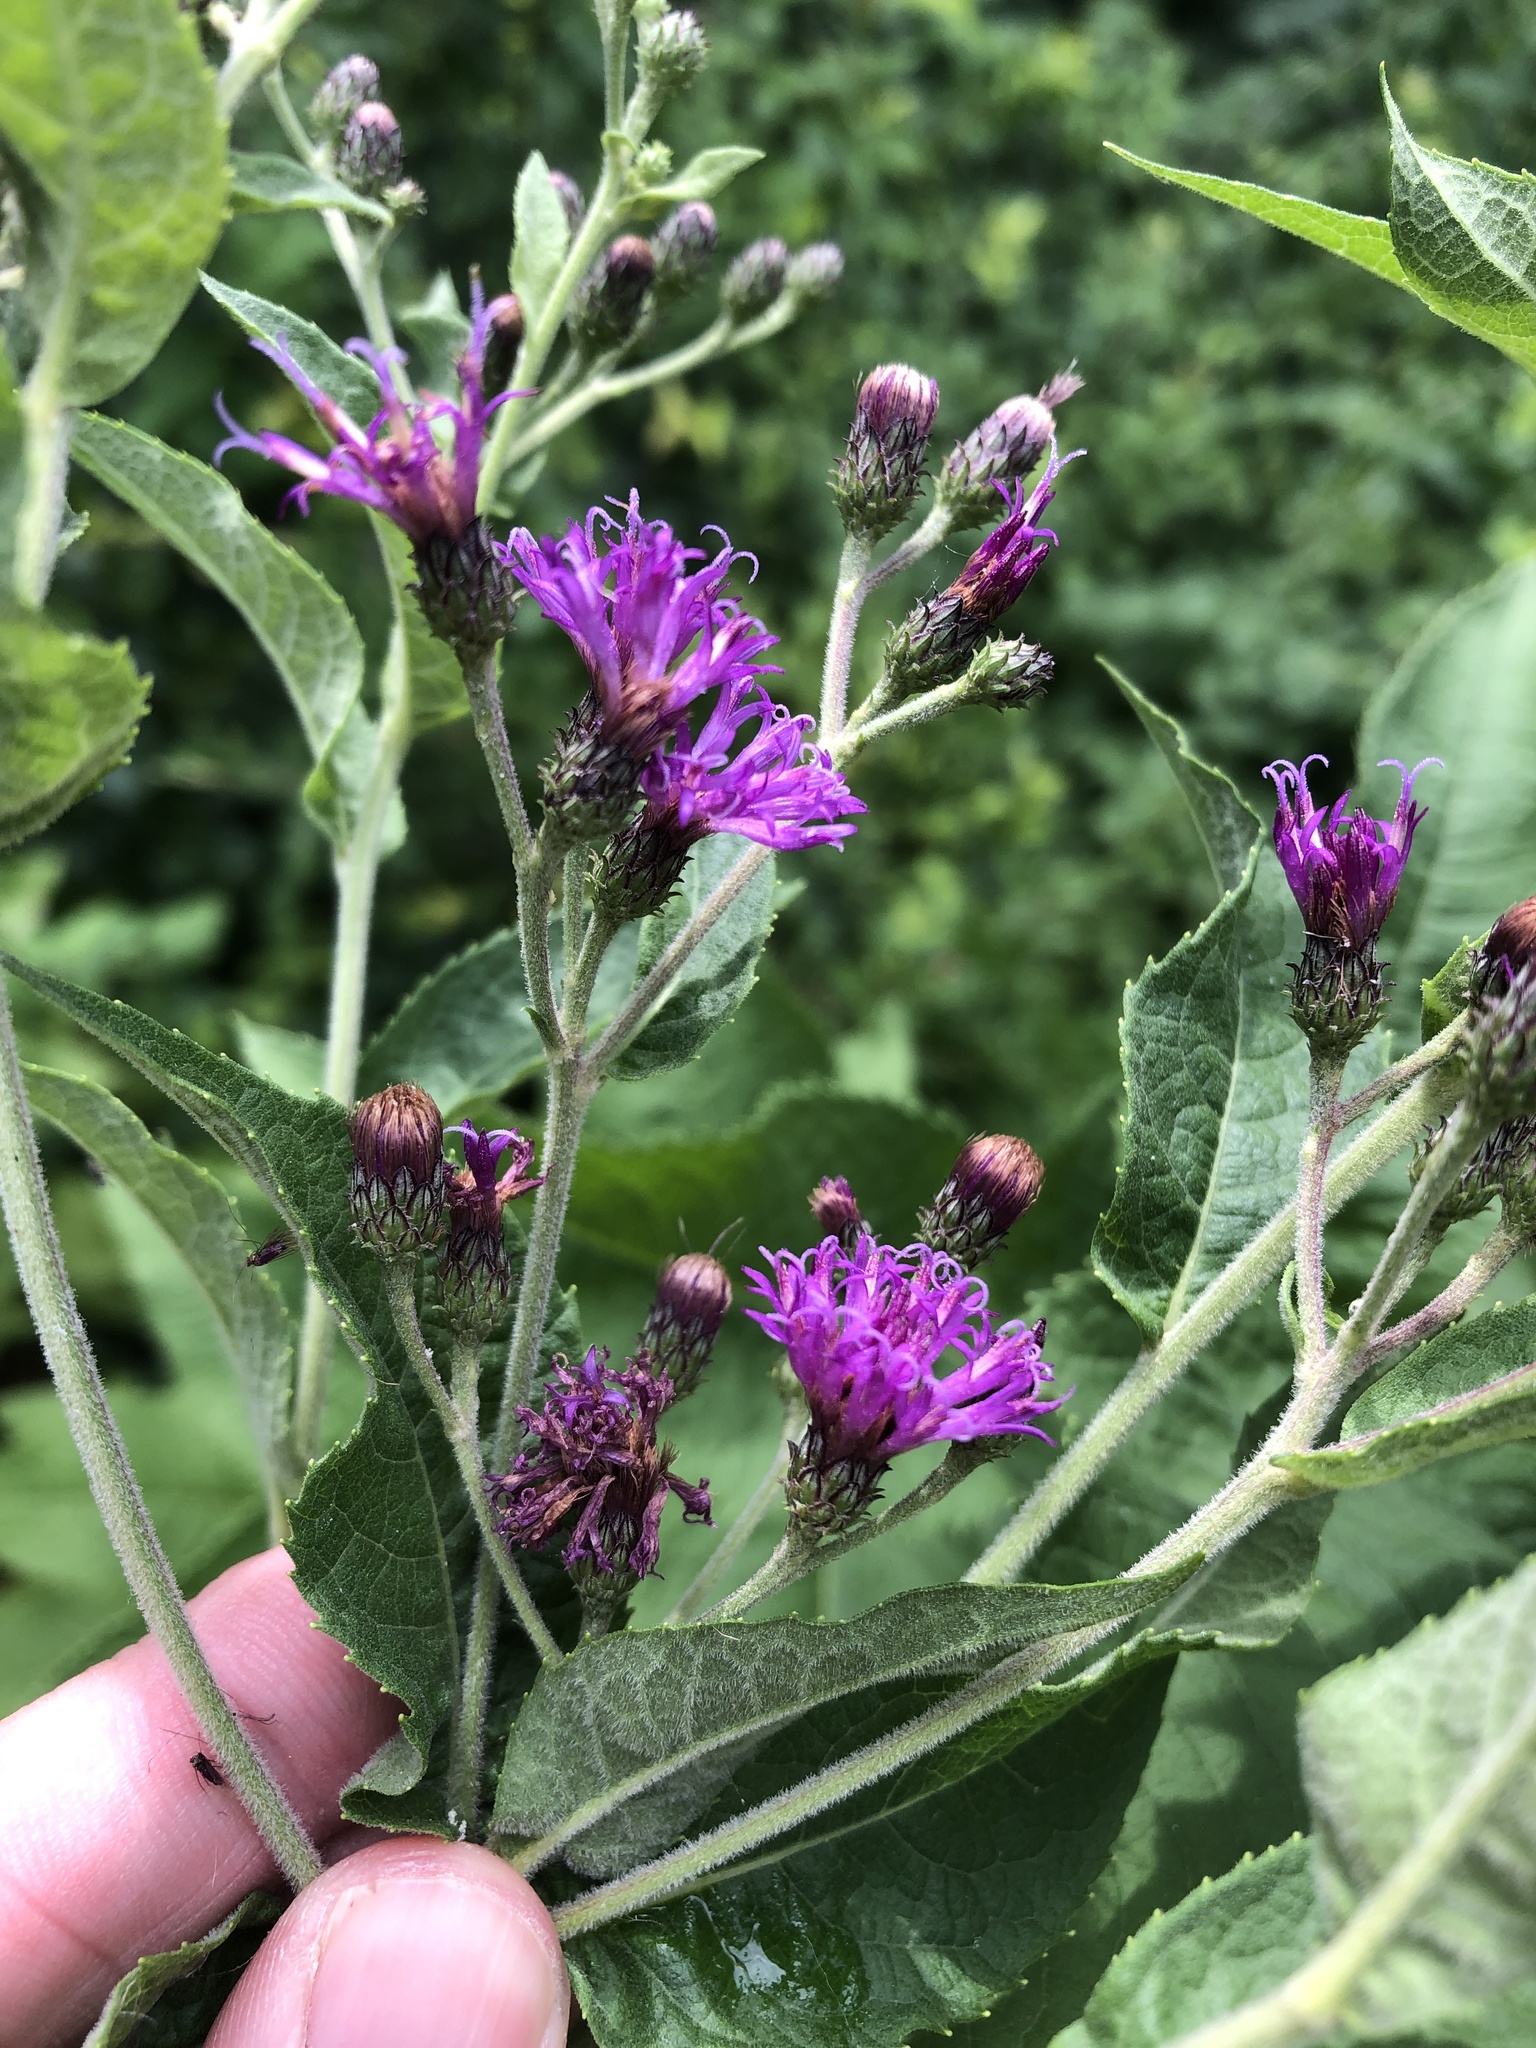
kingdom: Plantae
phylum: Tracheophyta
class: Magnoliopsida
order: Asterales
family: Asteraceae
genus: Vernonia
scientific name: Vernonia baldwinii
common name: Western ironweed
